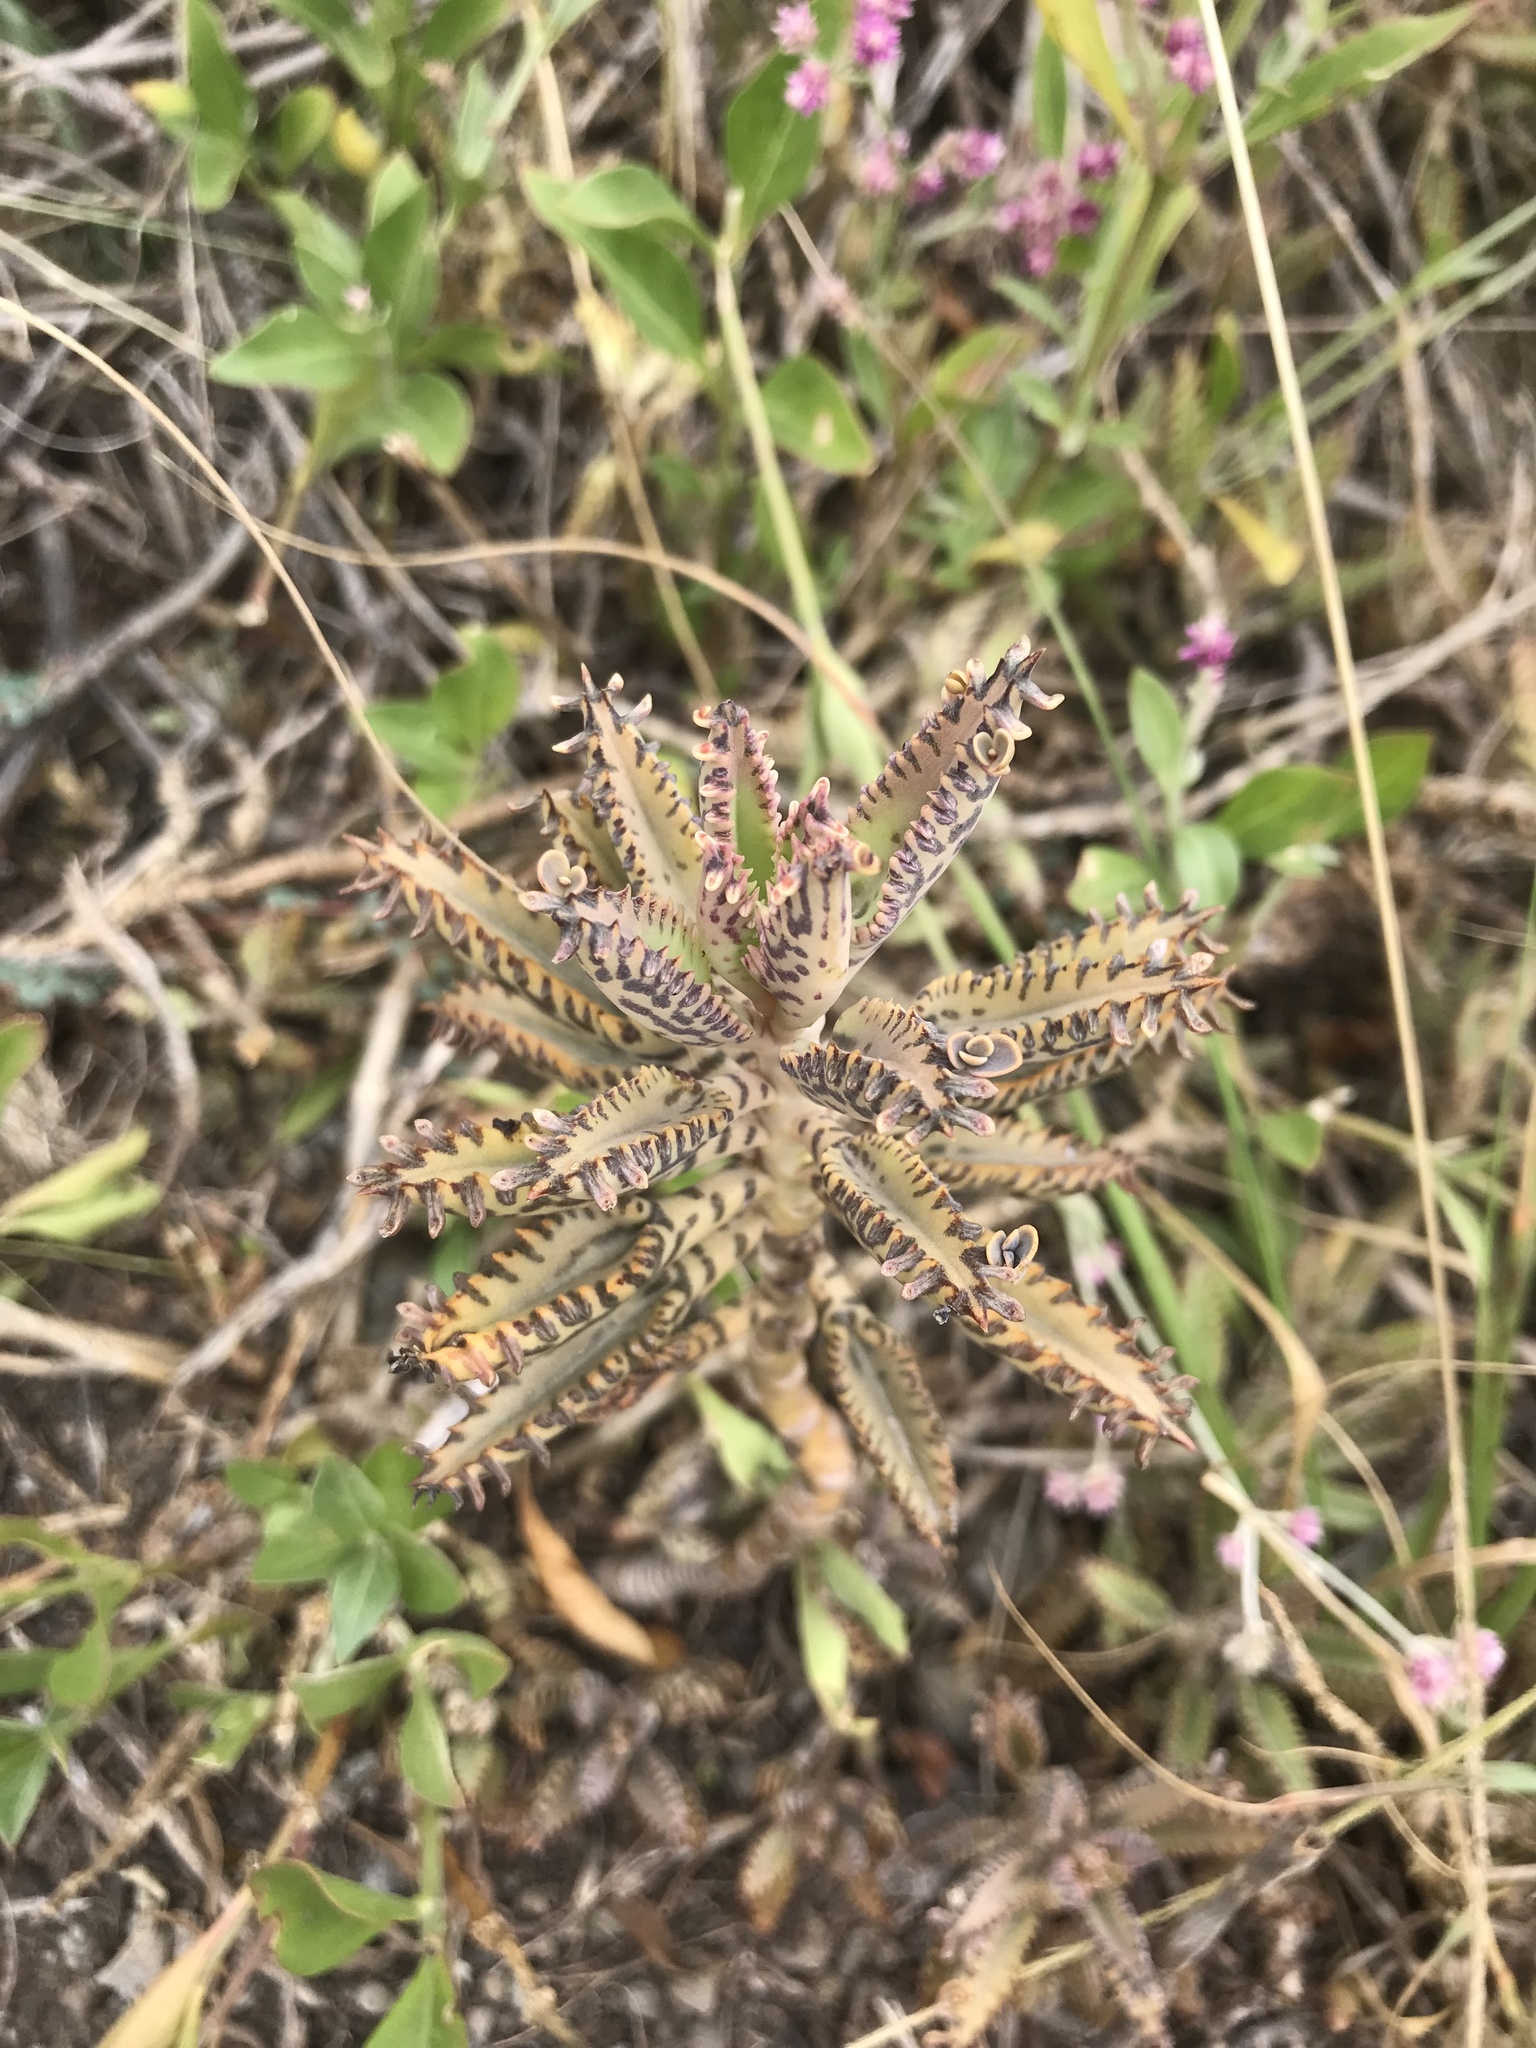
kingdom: Plantae
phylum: Tracheophyta
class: Magnoliopsida
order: Saxifragales
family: Crassulaceae
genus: Kalanchoe
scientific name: Kalanchoe houghtonii
